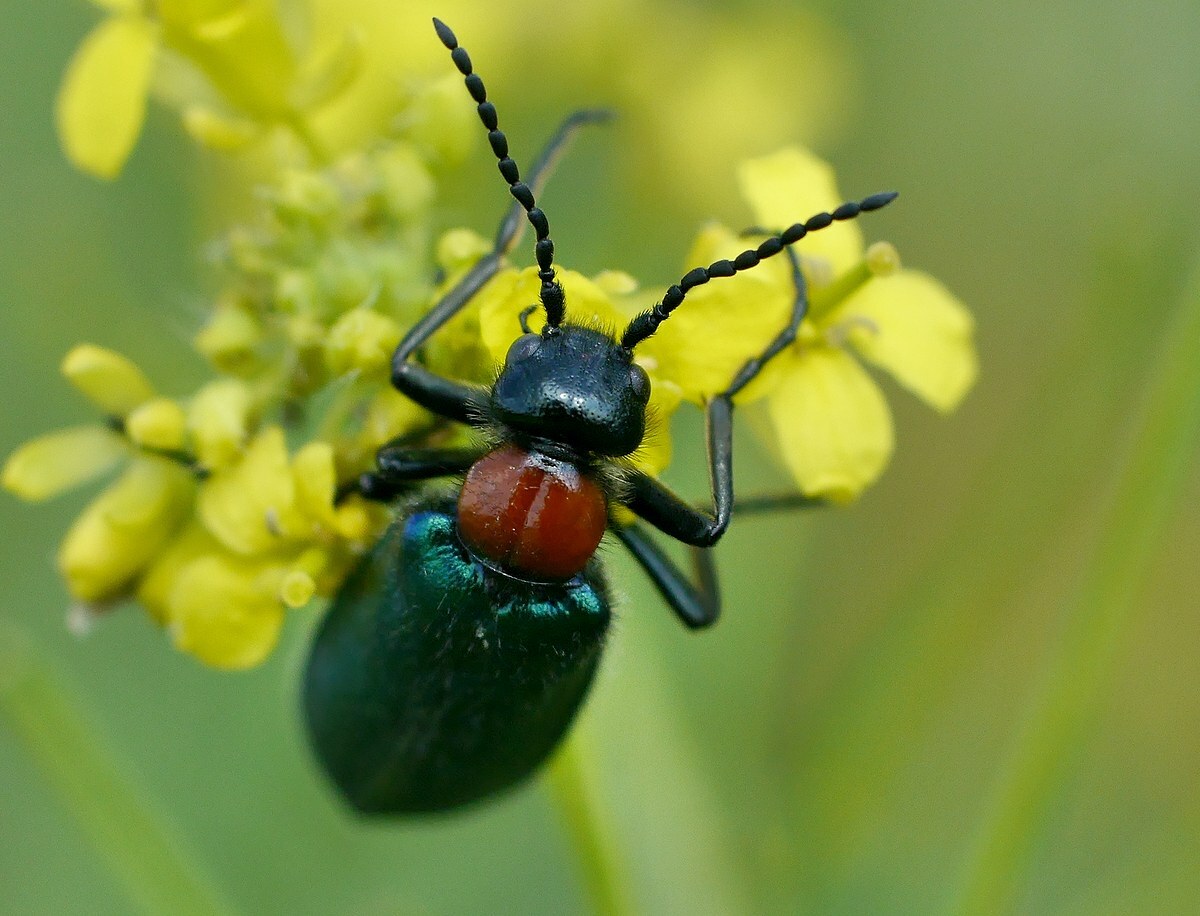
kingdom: Animalia
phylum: Arthropoda
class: Insecta
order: Coleoptera
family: Meloidae
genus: Alosimus
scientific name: Alosimus syriacus
